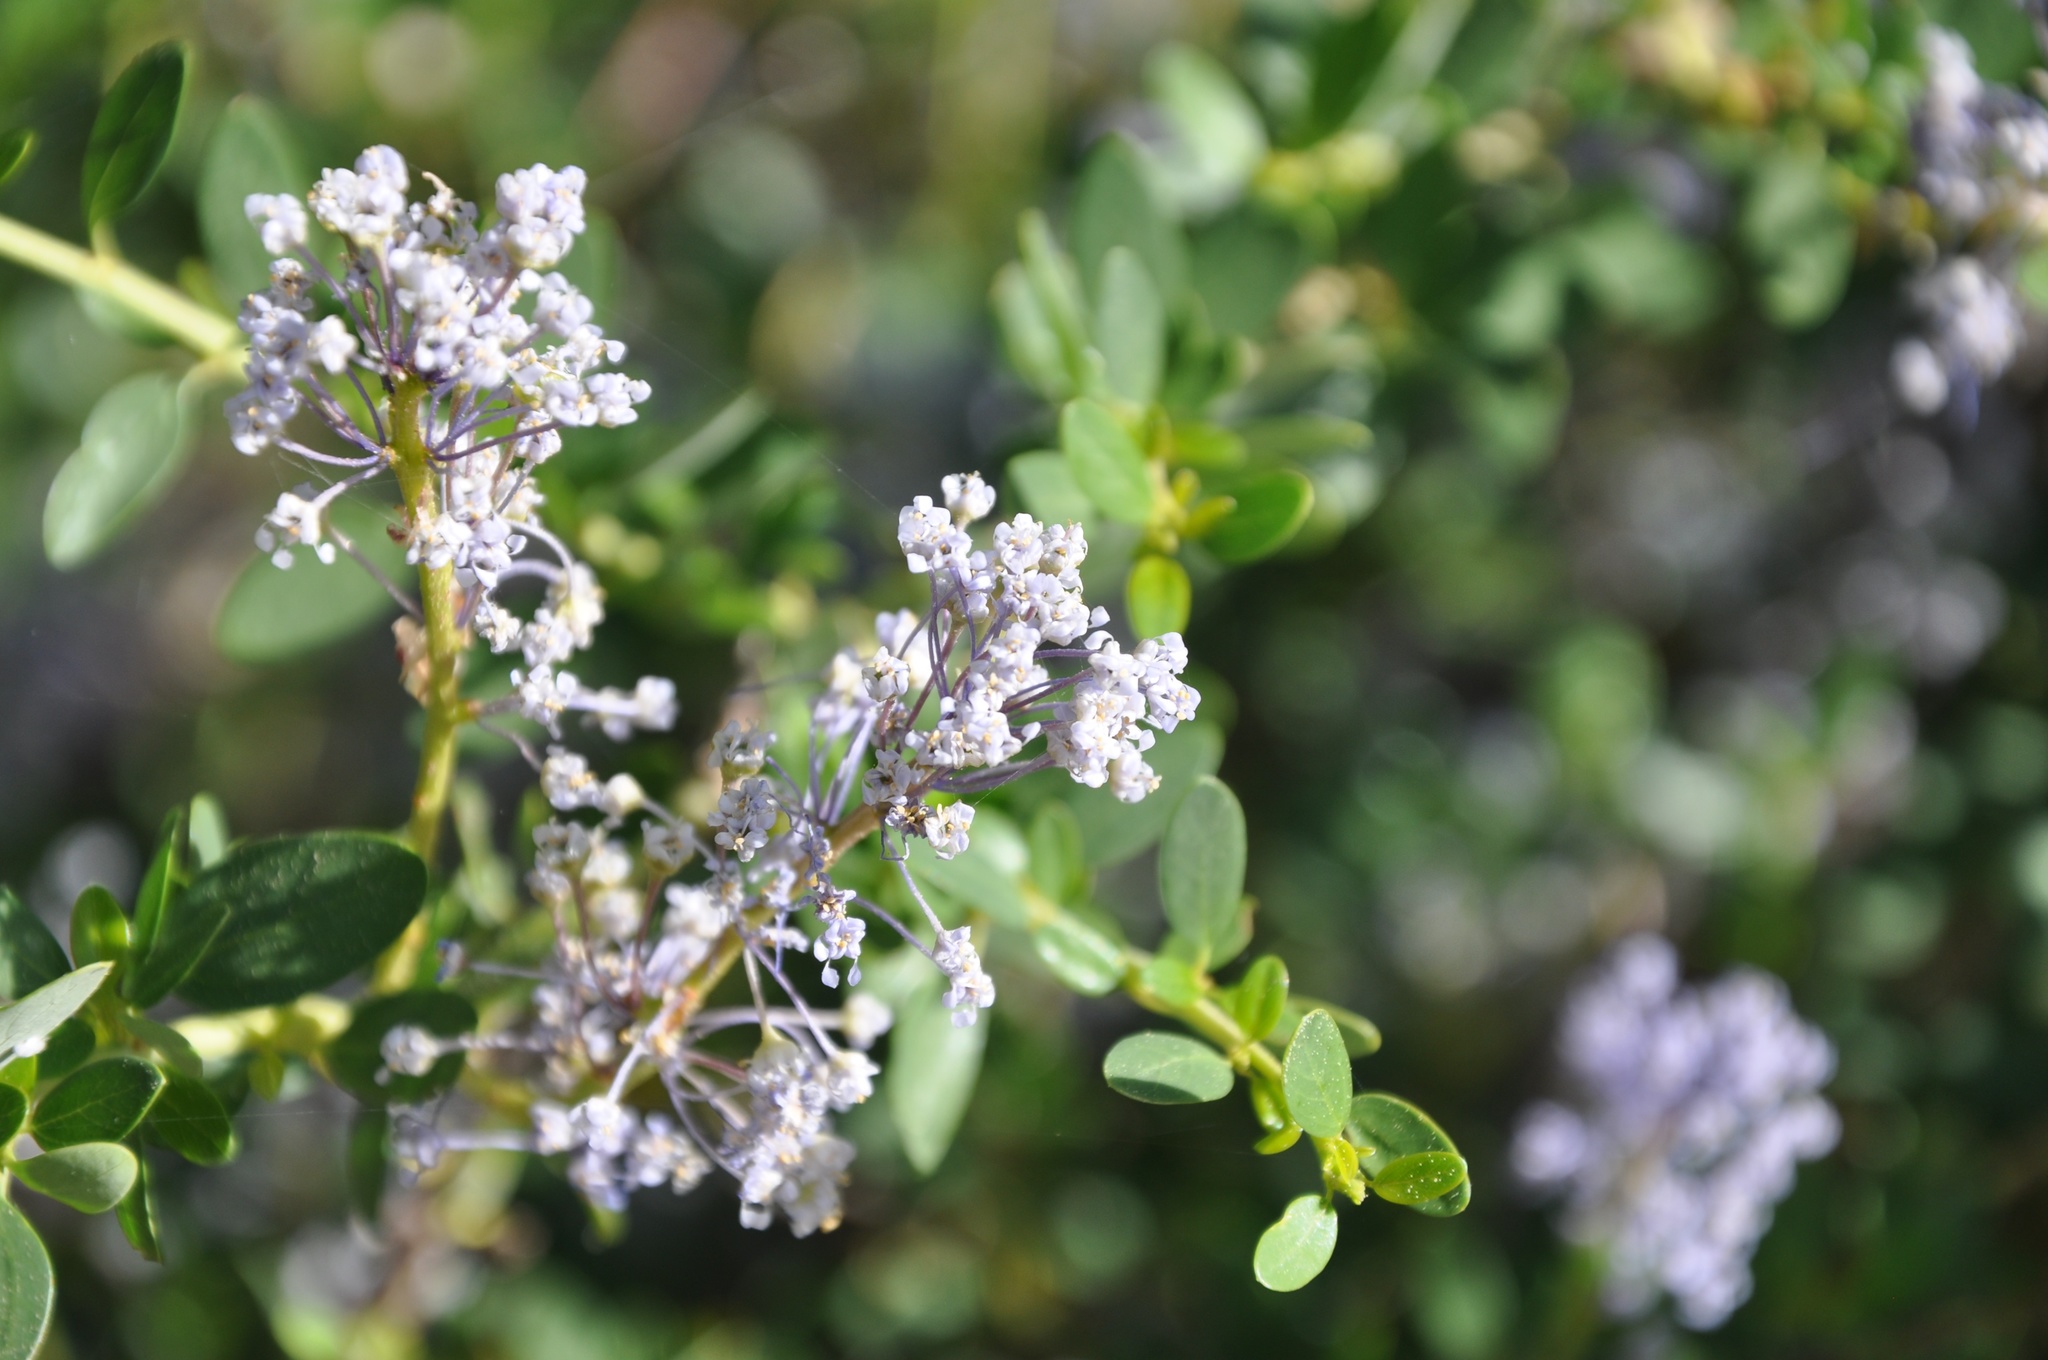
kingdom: Plantae
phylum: Tracheophyta
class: Magnoliopsida
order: Rosales
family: Rhamnaceae
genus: Ceanothus
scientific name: Ceanothus parvifolius
